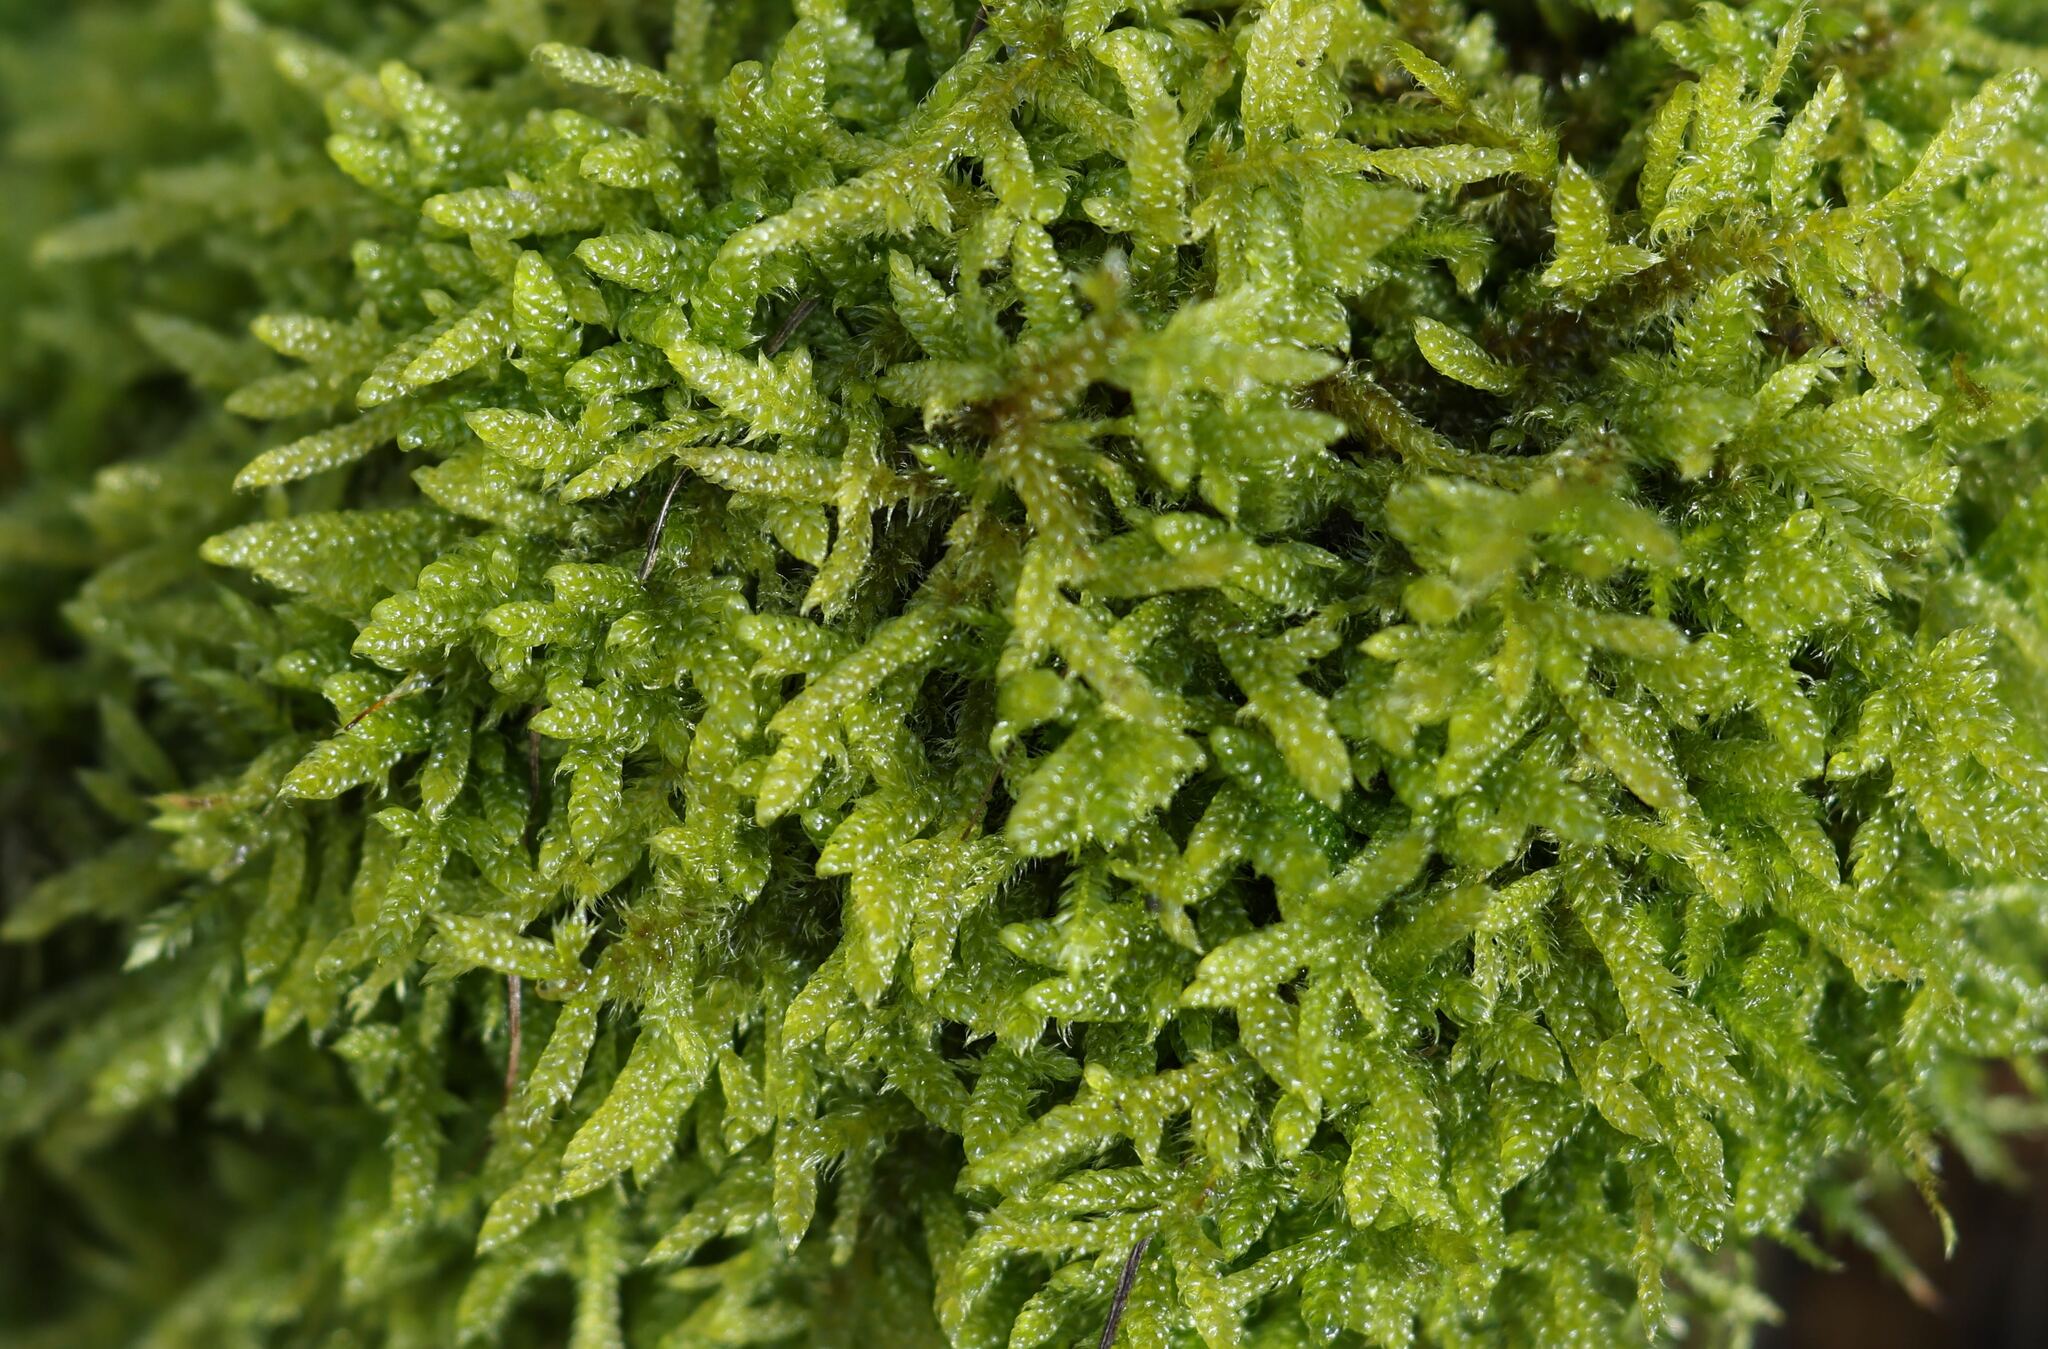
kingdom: Plantae
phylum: Bryophyta
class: Bryopsida
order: Hypnales
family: Hypnaceae
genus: Hypnum
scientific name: Hypnum cupressiforme
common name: Cypress-leaved plait-moss
